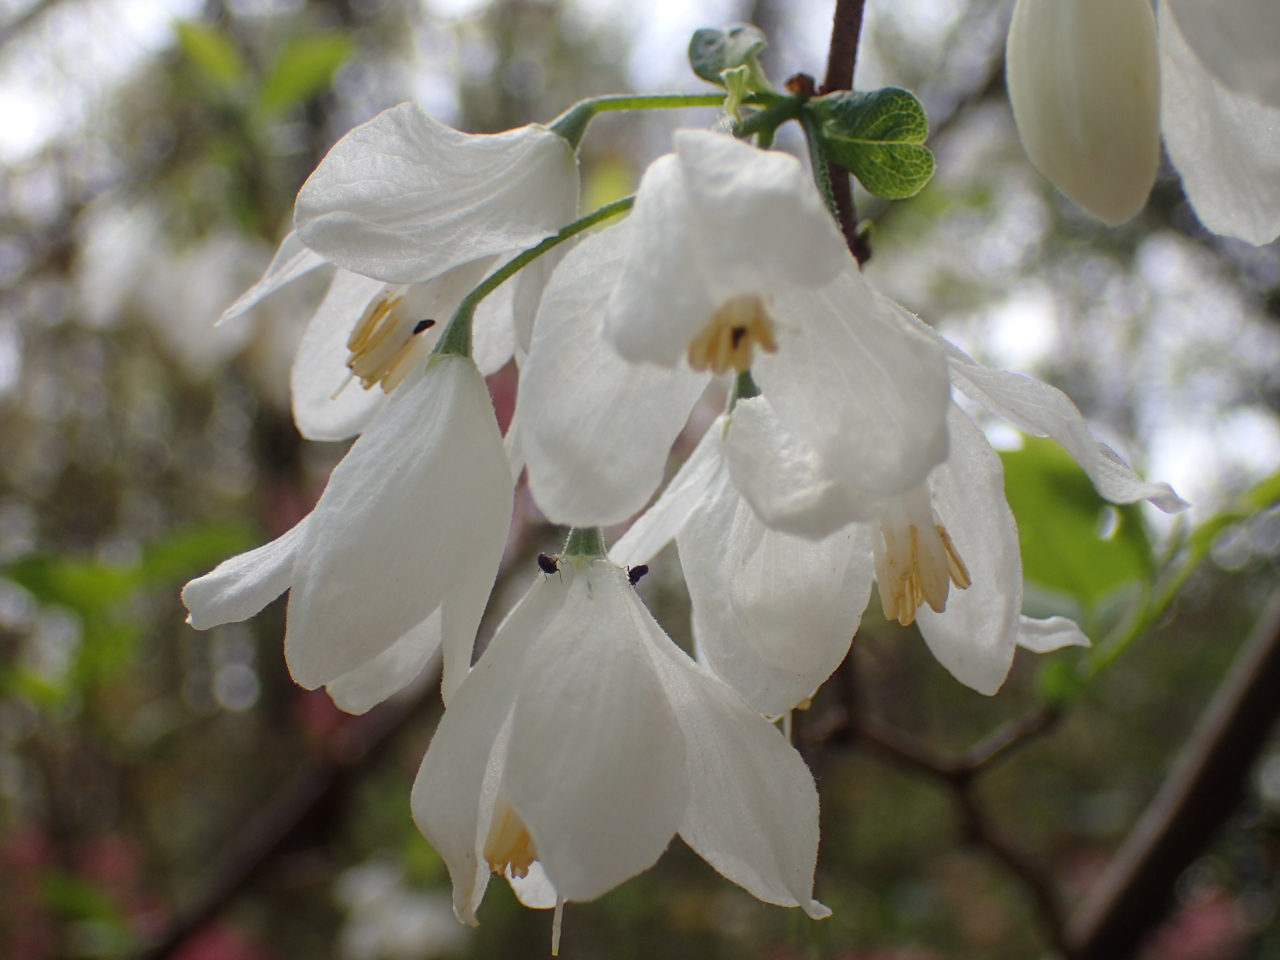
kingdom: Plantae
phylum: Tracheophyta
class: Magnoliopsida
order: Ericales
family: Styracaceae
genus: Halesia
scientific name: Halesia diptera
